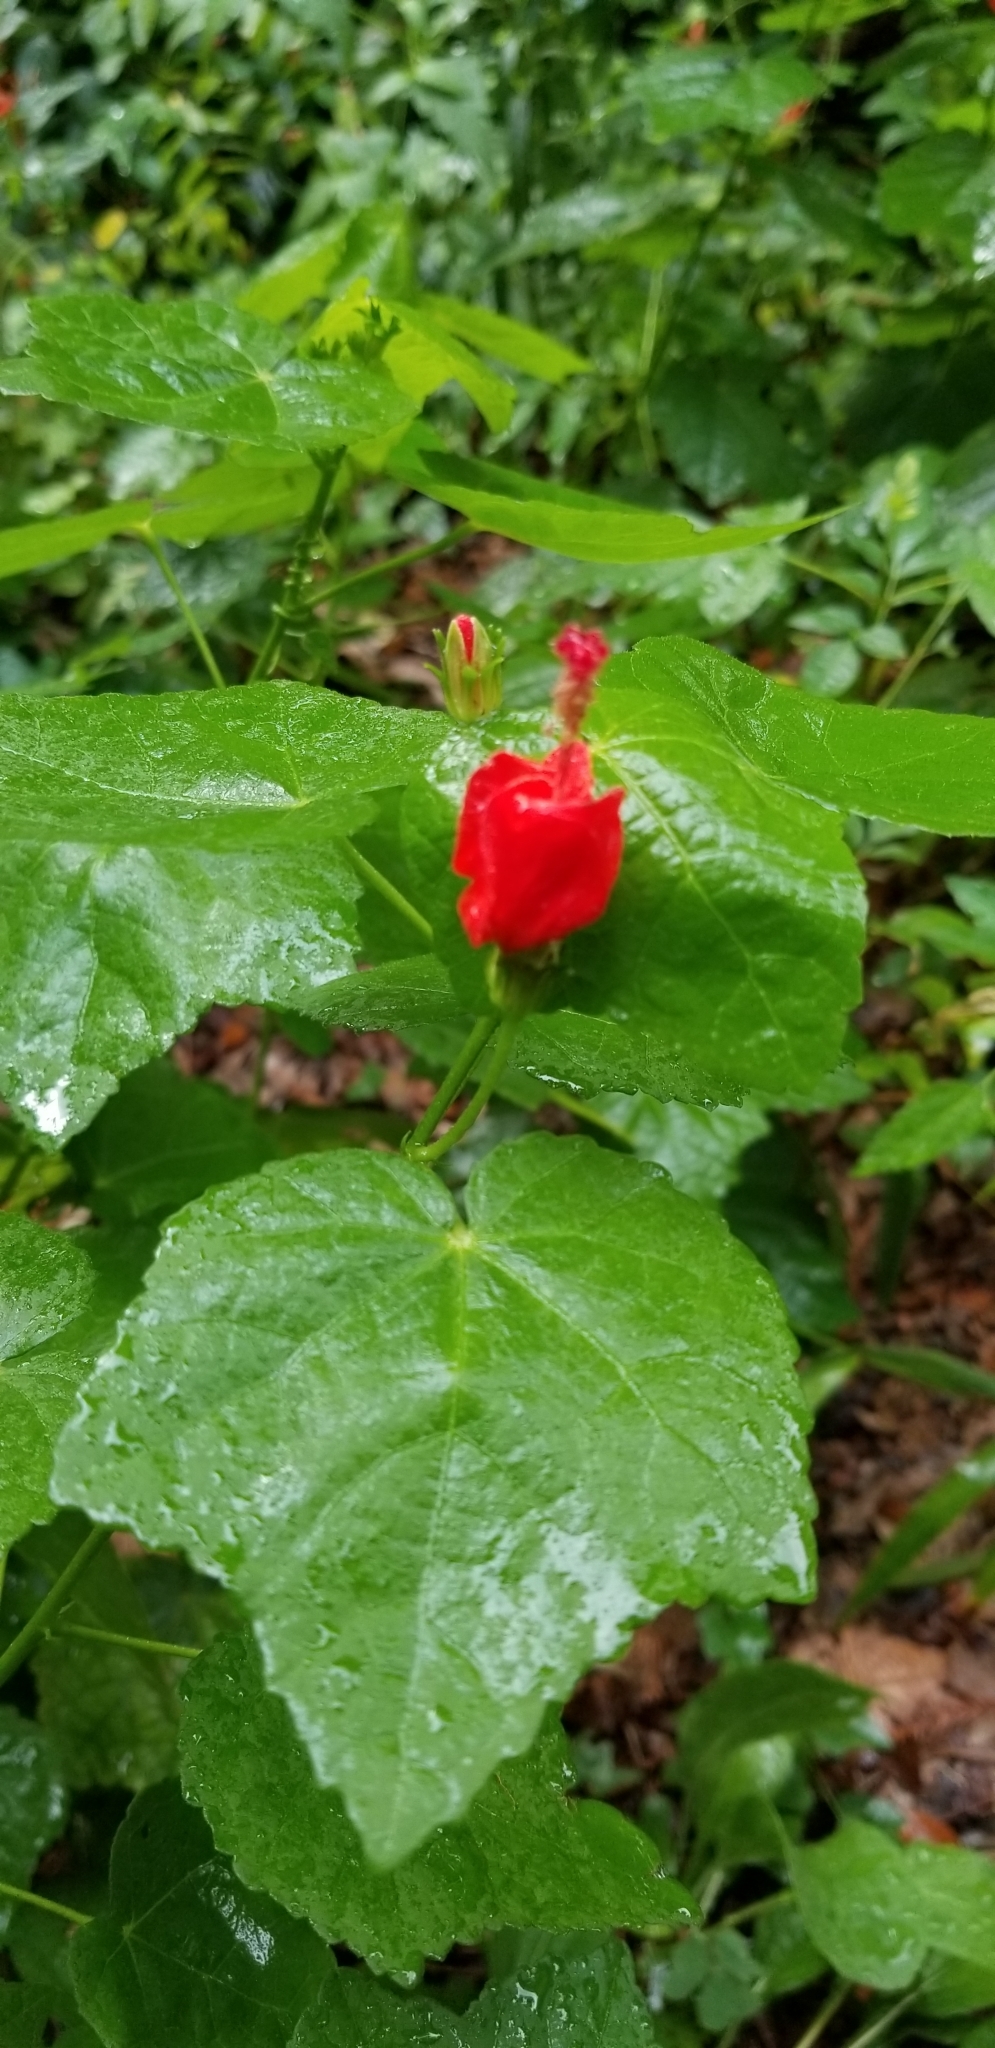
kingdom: Plantae
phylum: Tracheophyta
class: Magnoliopsida
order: Malvales
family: Malvaceae
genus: Malvaviscus
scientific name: Malvaviscus arboreus
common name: Wax mallow
